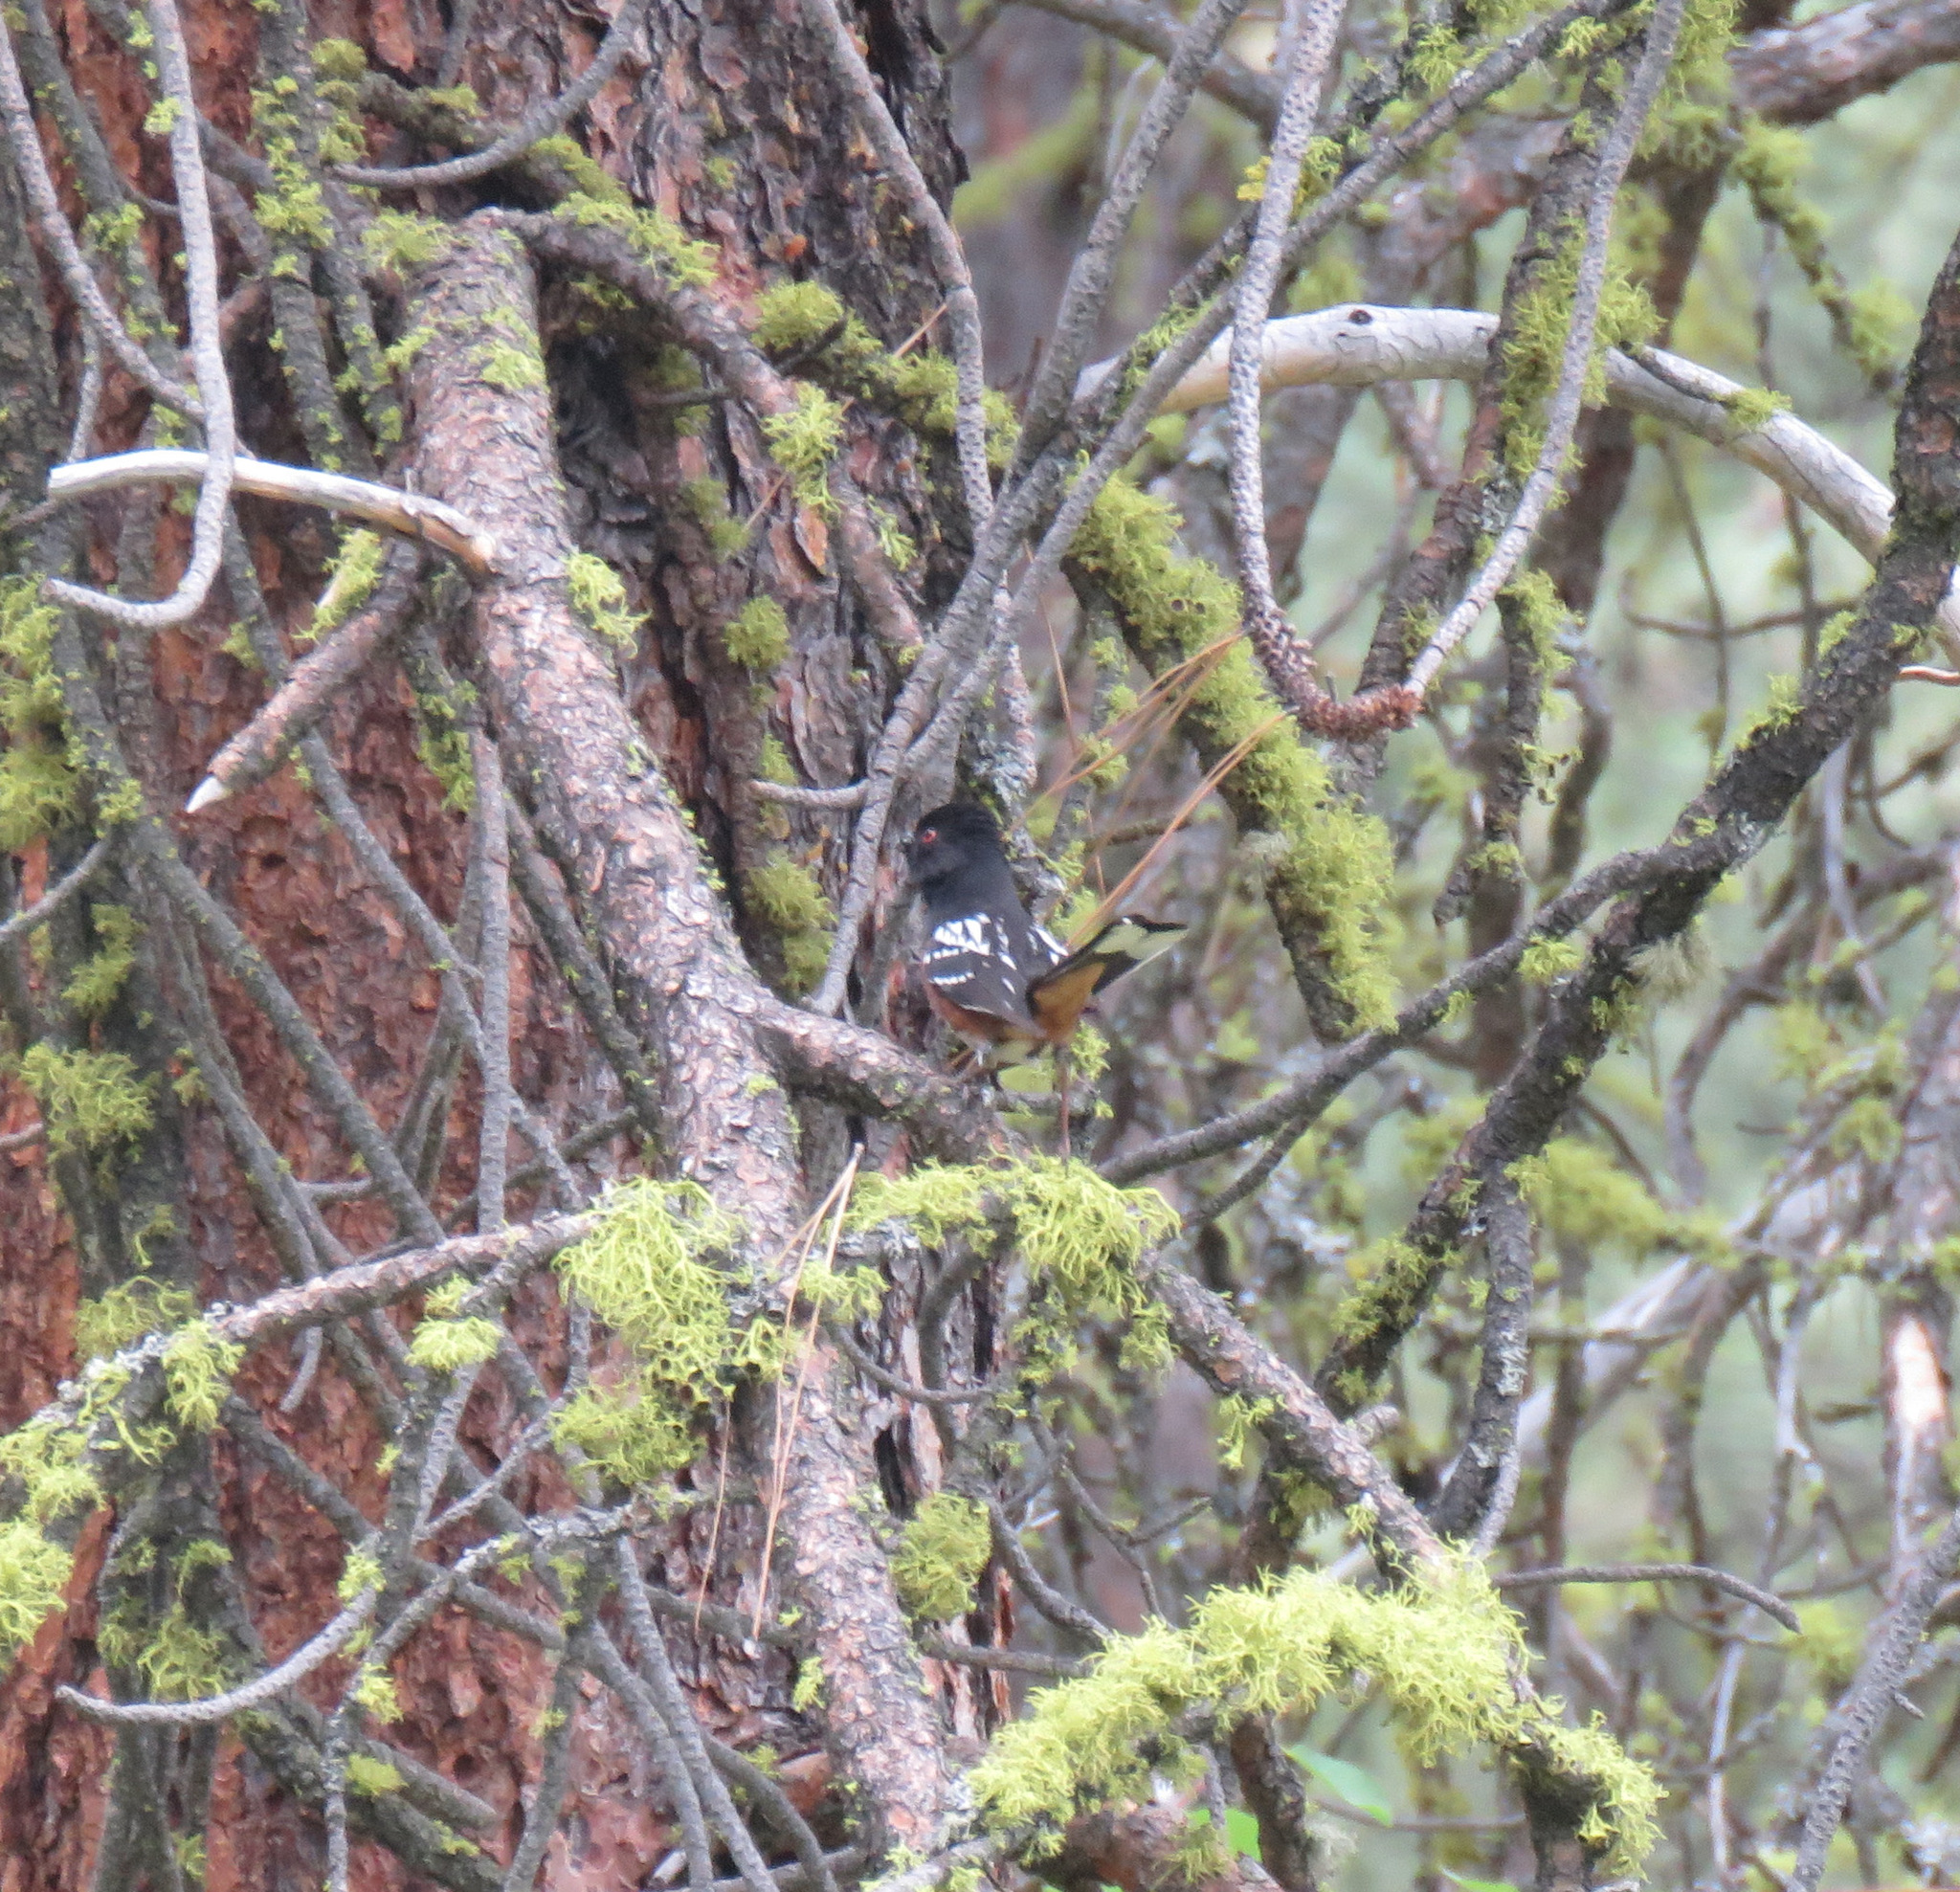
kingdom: Animalia
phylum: Chordata
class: Aves
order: Passeriformes
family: Passerellidae
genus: Pipilo
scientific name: Pipilo maculatus
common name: Spotted towhee
